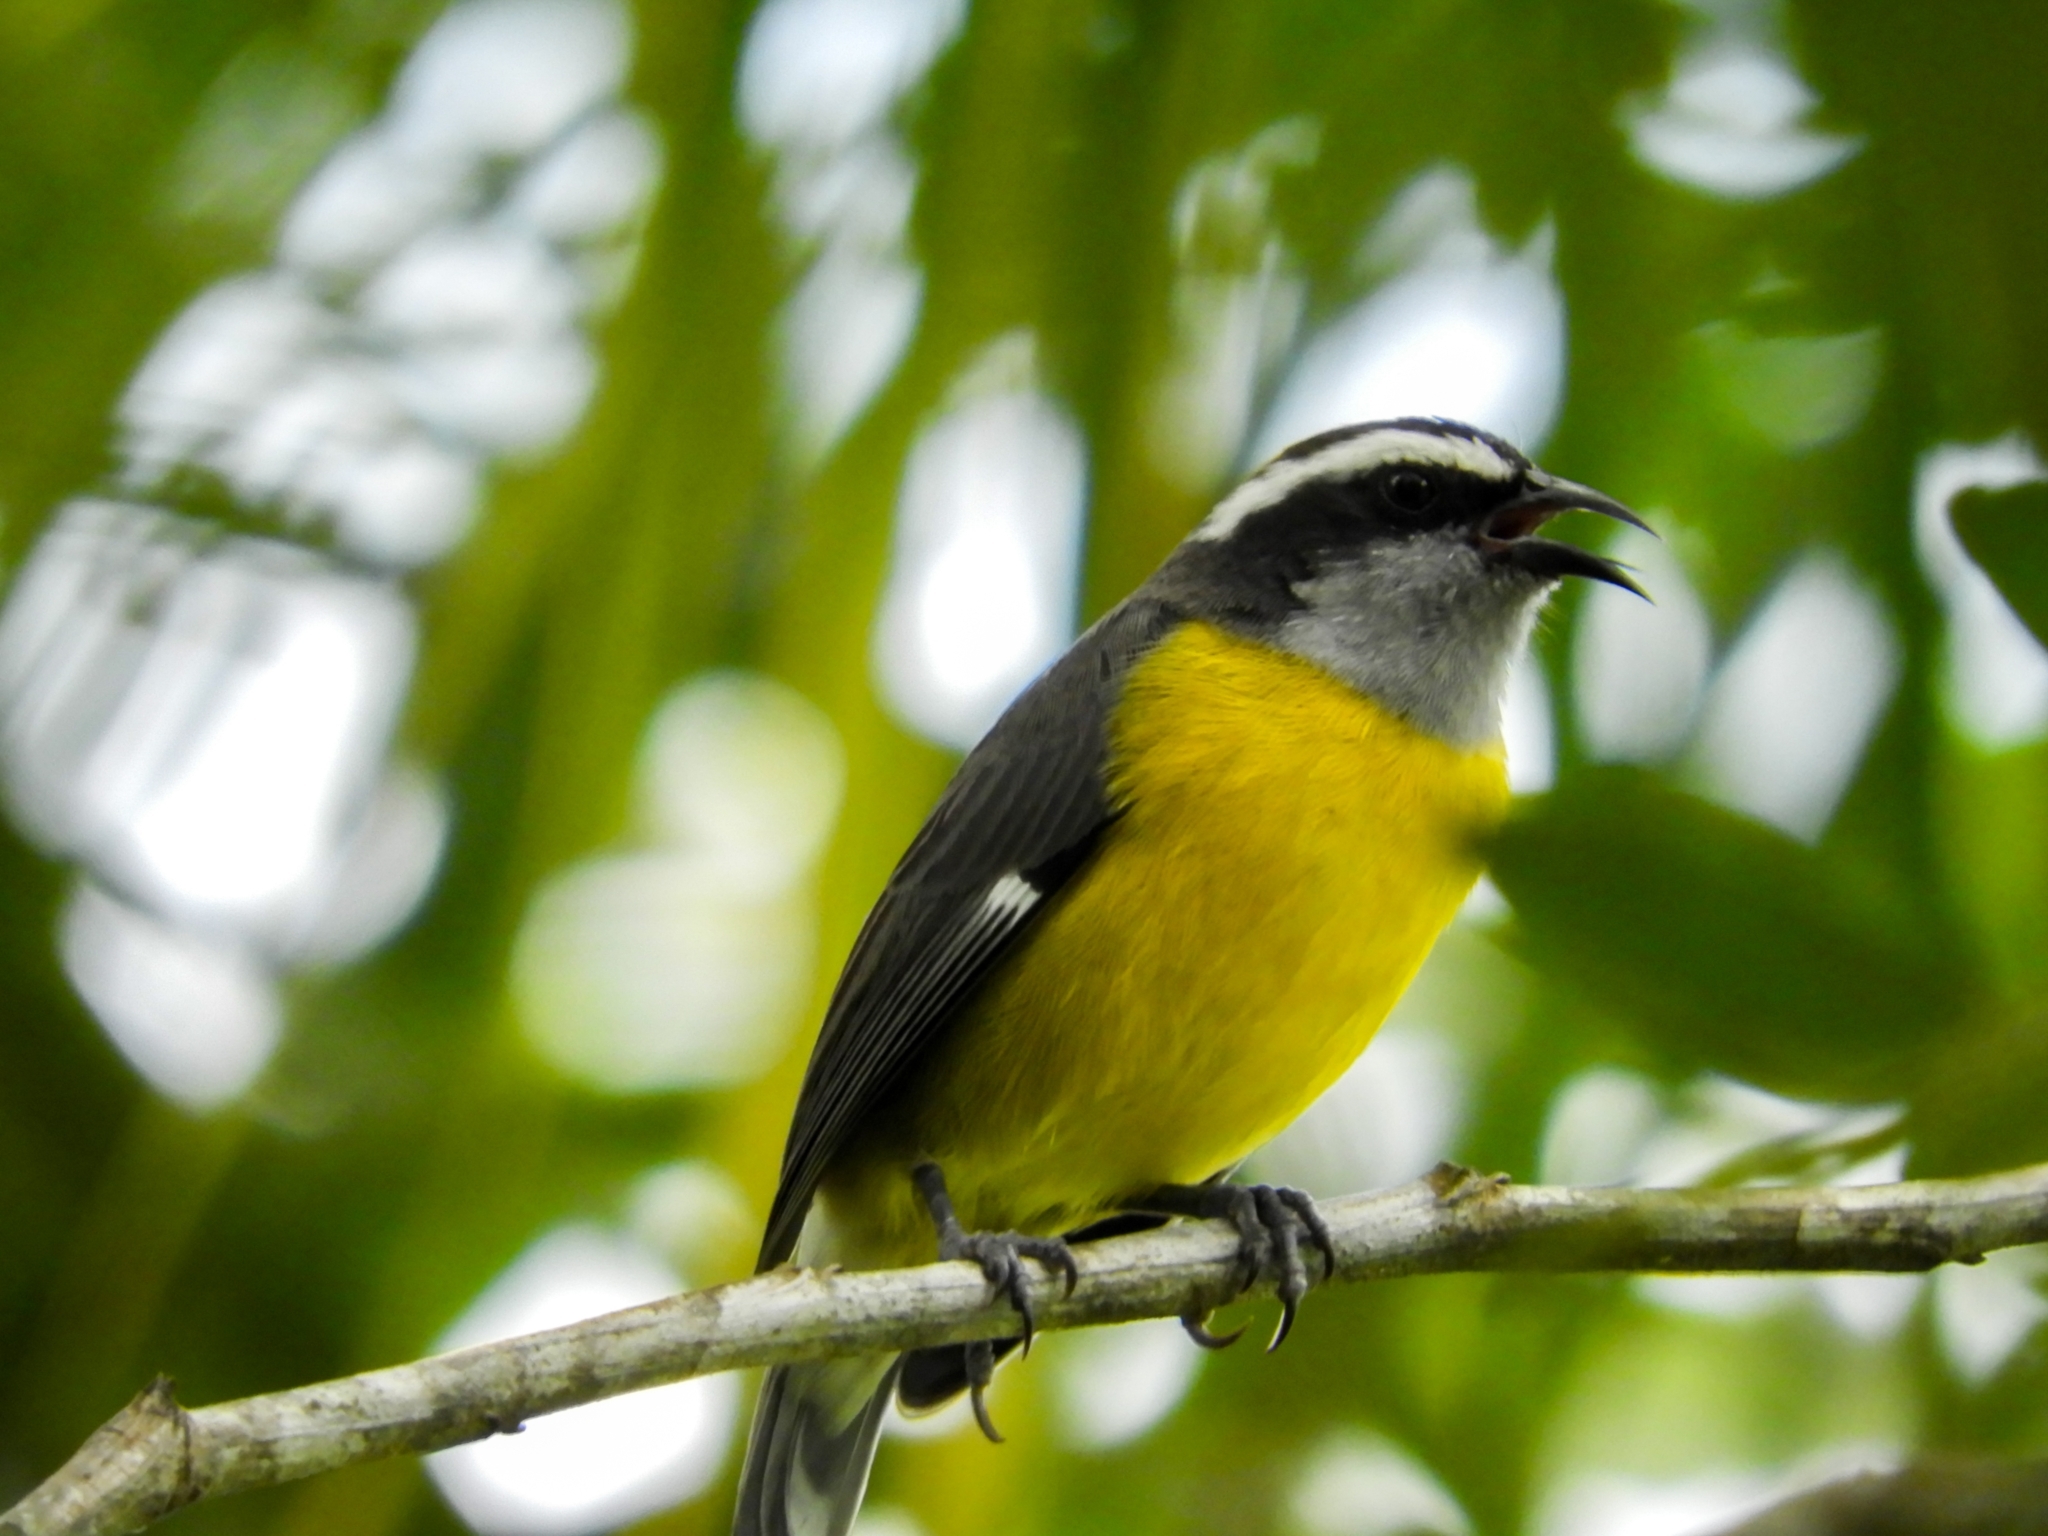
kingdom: Animalia
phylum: Chordata
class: Aves
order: Passeriformes
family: Thraupidae
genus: Coereba
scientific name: Coereba flaveola
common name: Bananaquit
